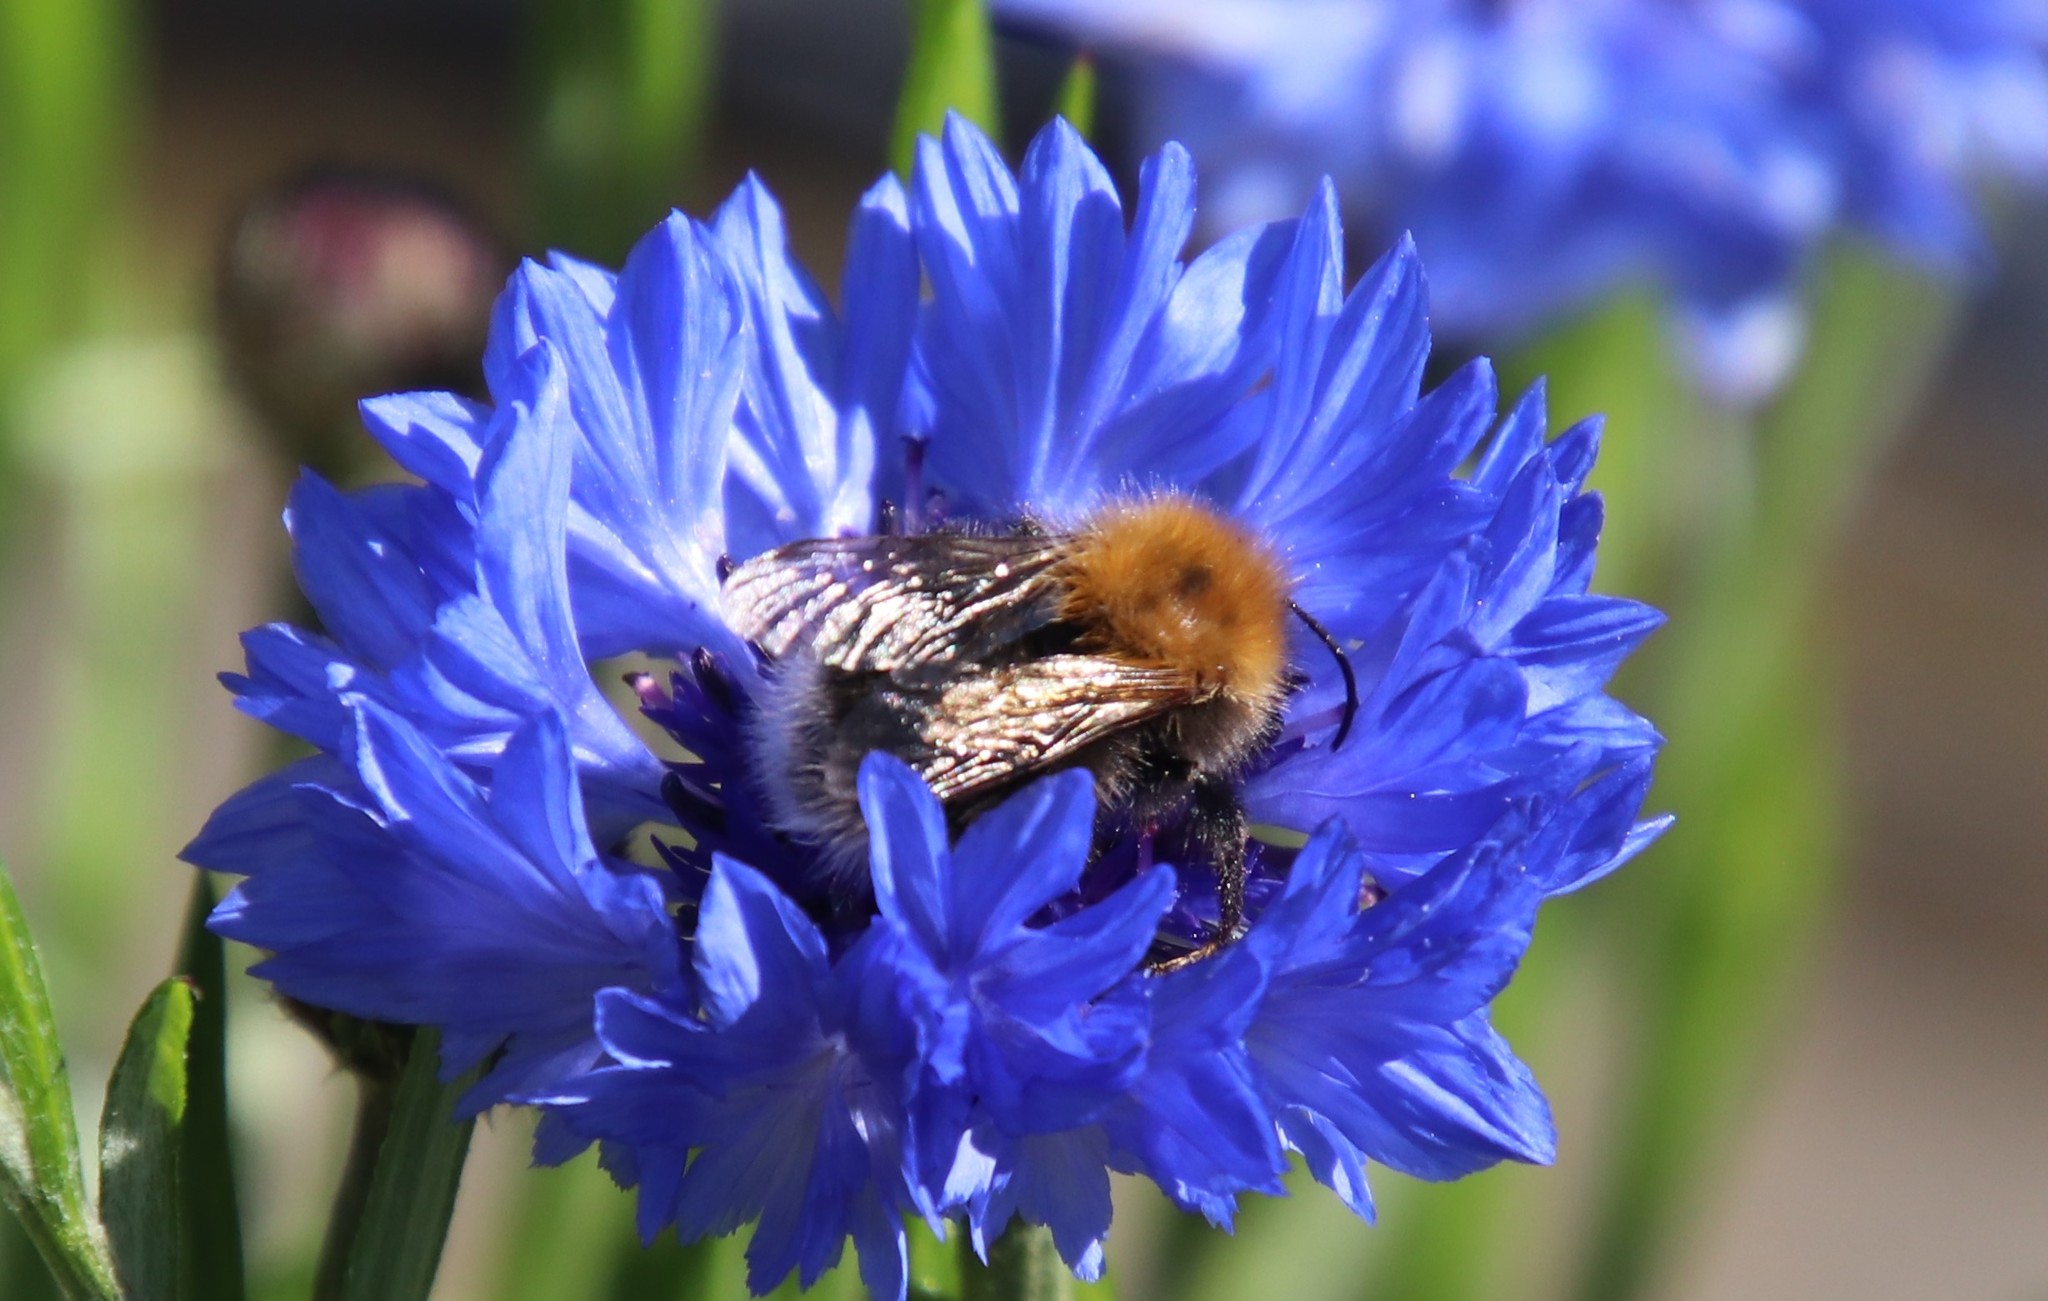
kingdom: Animalia
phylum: Arthropoda
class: Insecta
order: Hymenoptera
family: Apidae
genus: Bombus
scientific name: Bombus hypnorum
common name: New garden bumblebee
